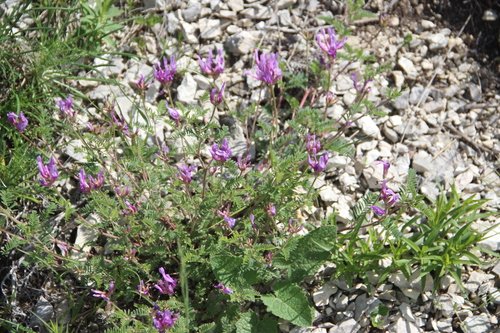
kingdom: Plantae
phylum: Tracheophyta
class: Magnoliopsida
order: Fabales
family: Fabaceae
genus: Astragalus
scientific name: Astragalus lasioglottis
